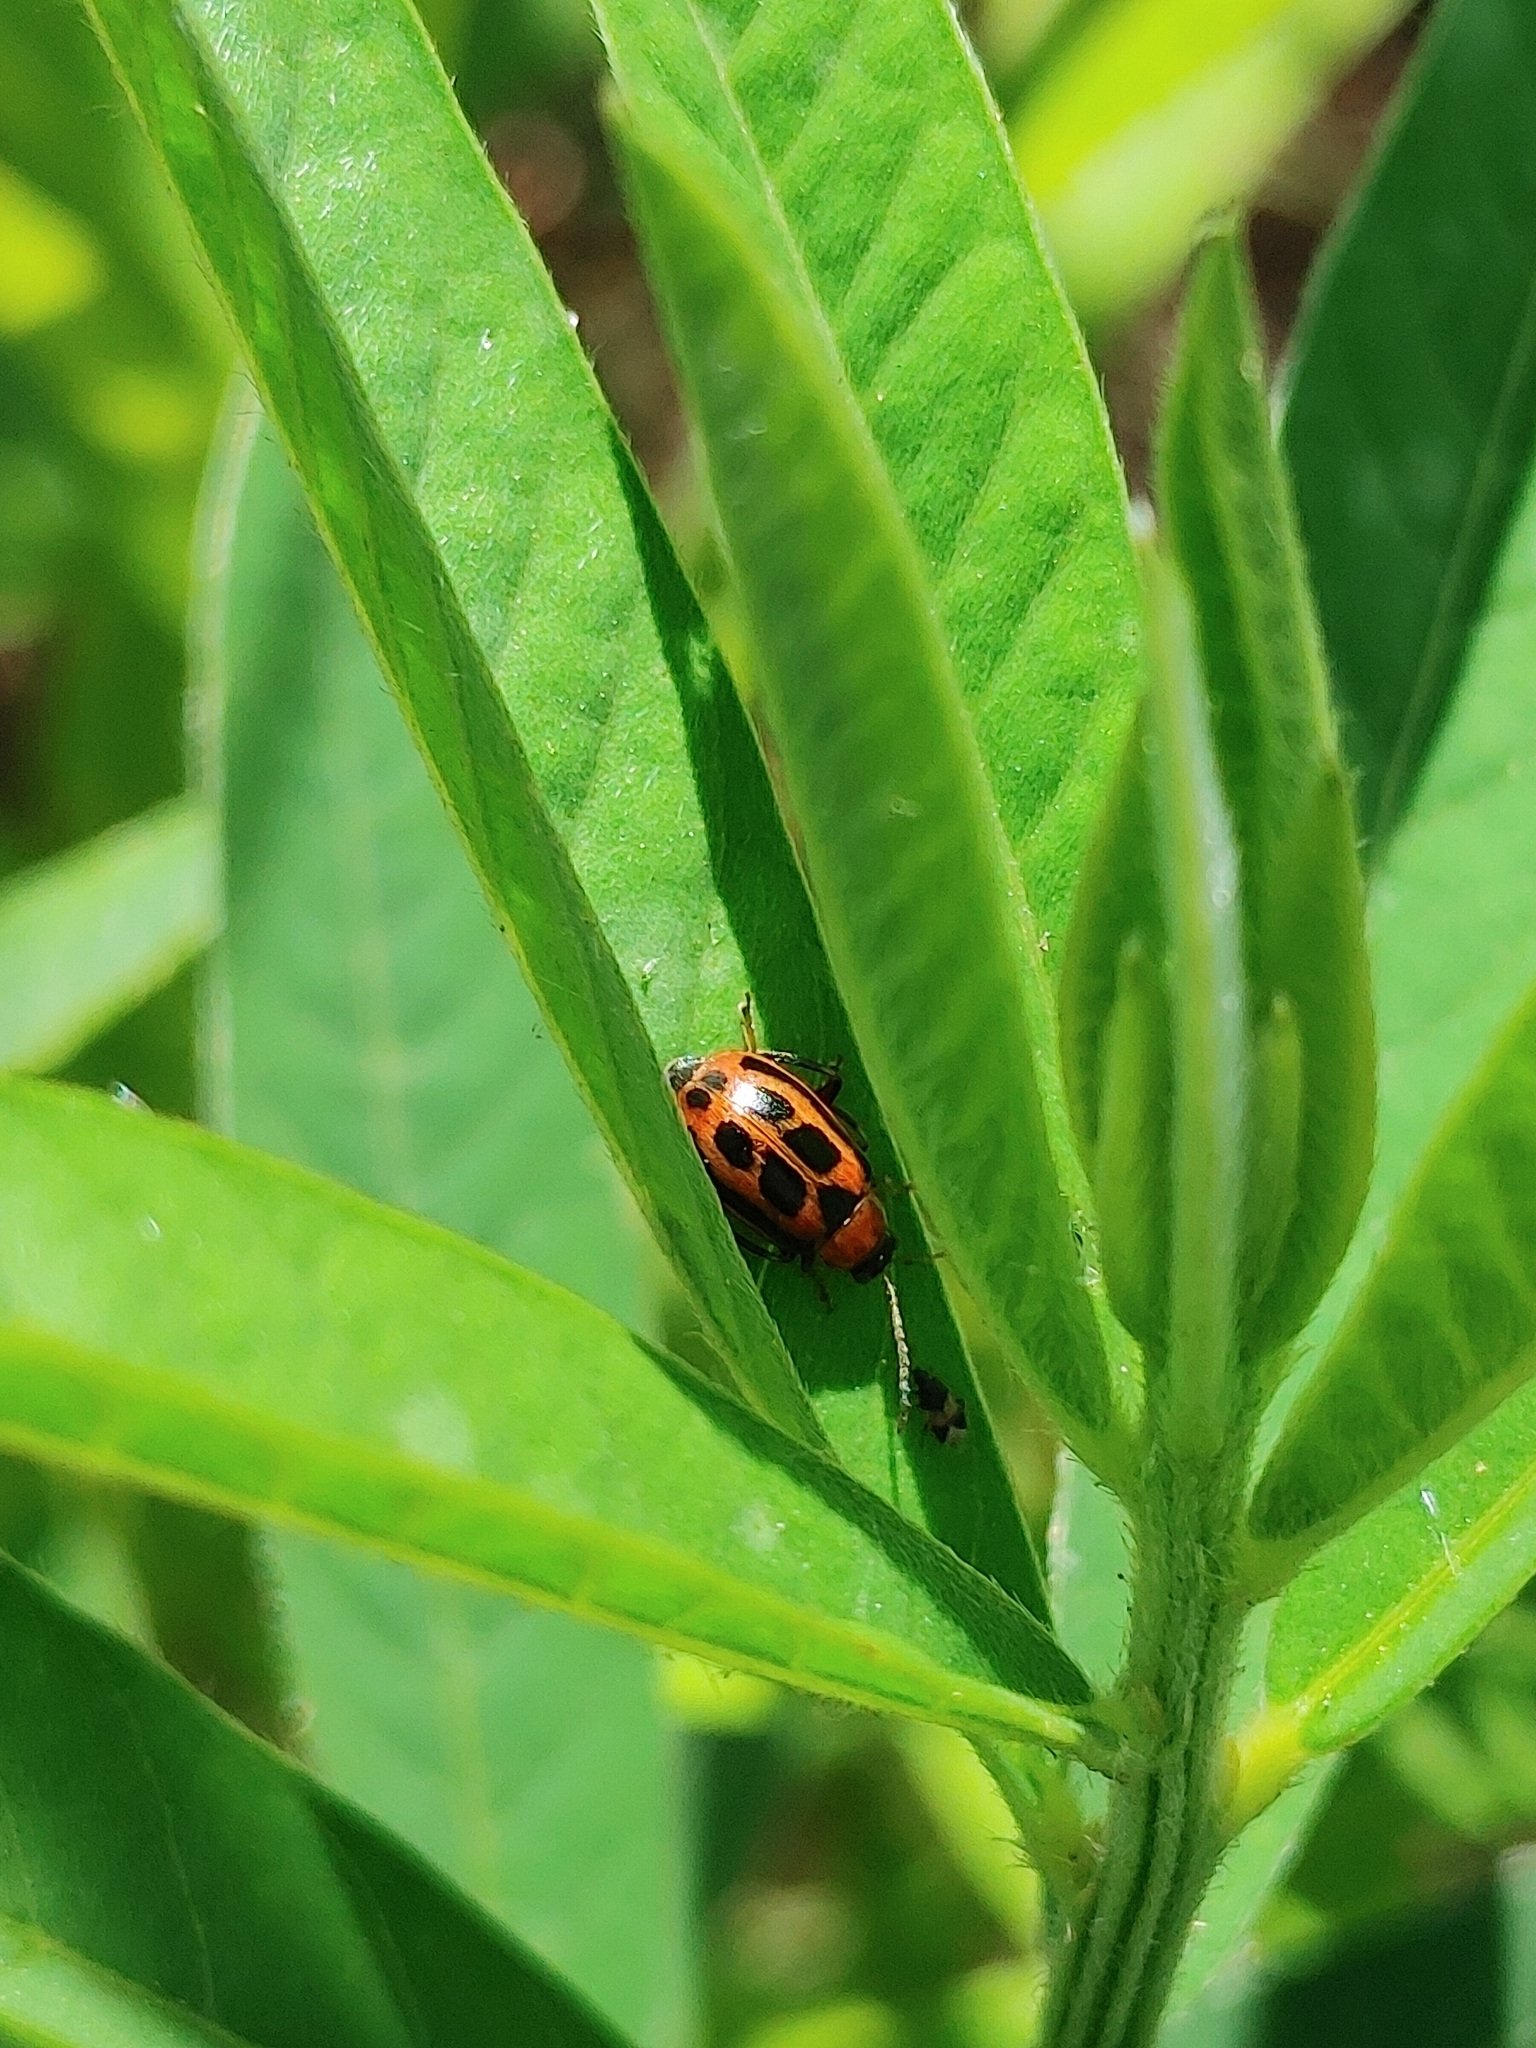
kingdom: Animalia
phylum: Arthropoda
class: Insecta
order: Coleoptera
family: Chrysomelidae
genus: Cerotoma
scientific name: Cerotoma trifurcata
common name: Bean leaf beetle
